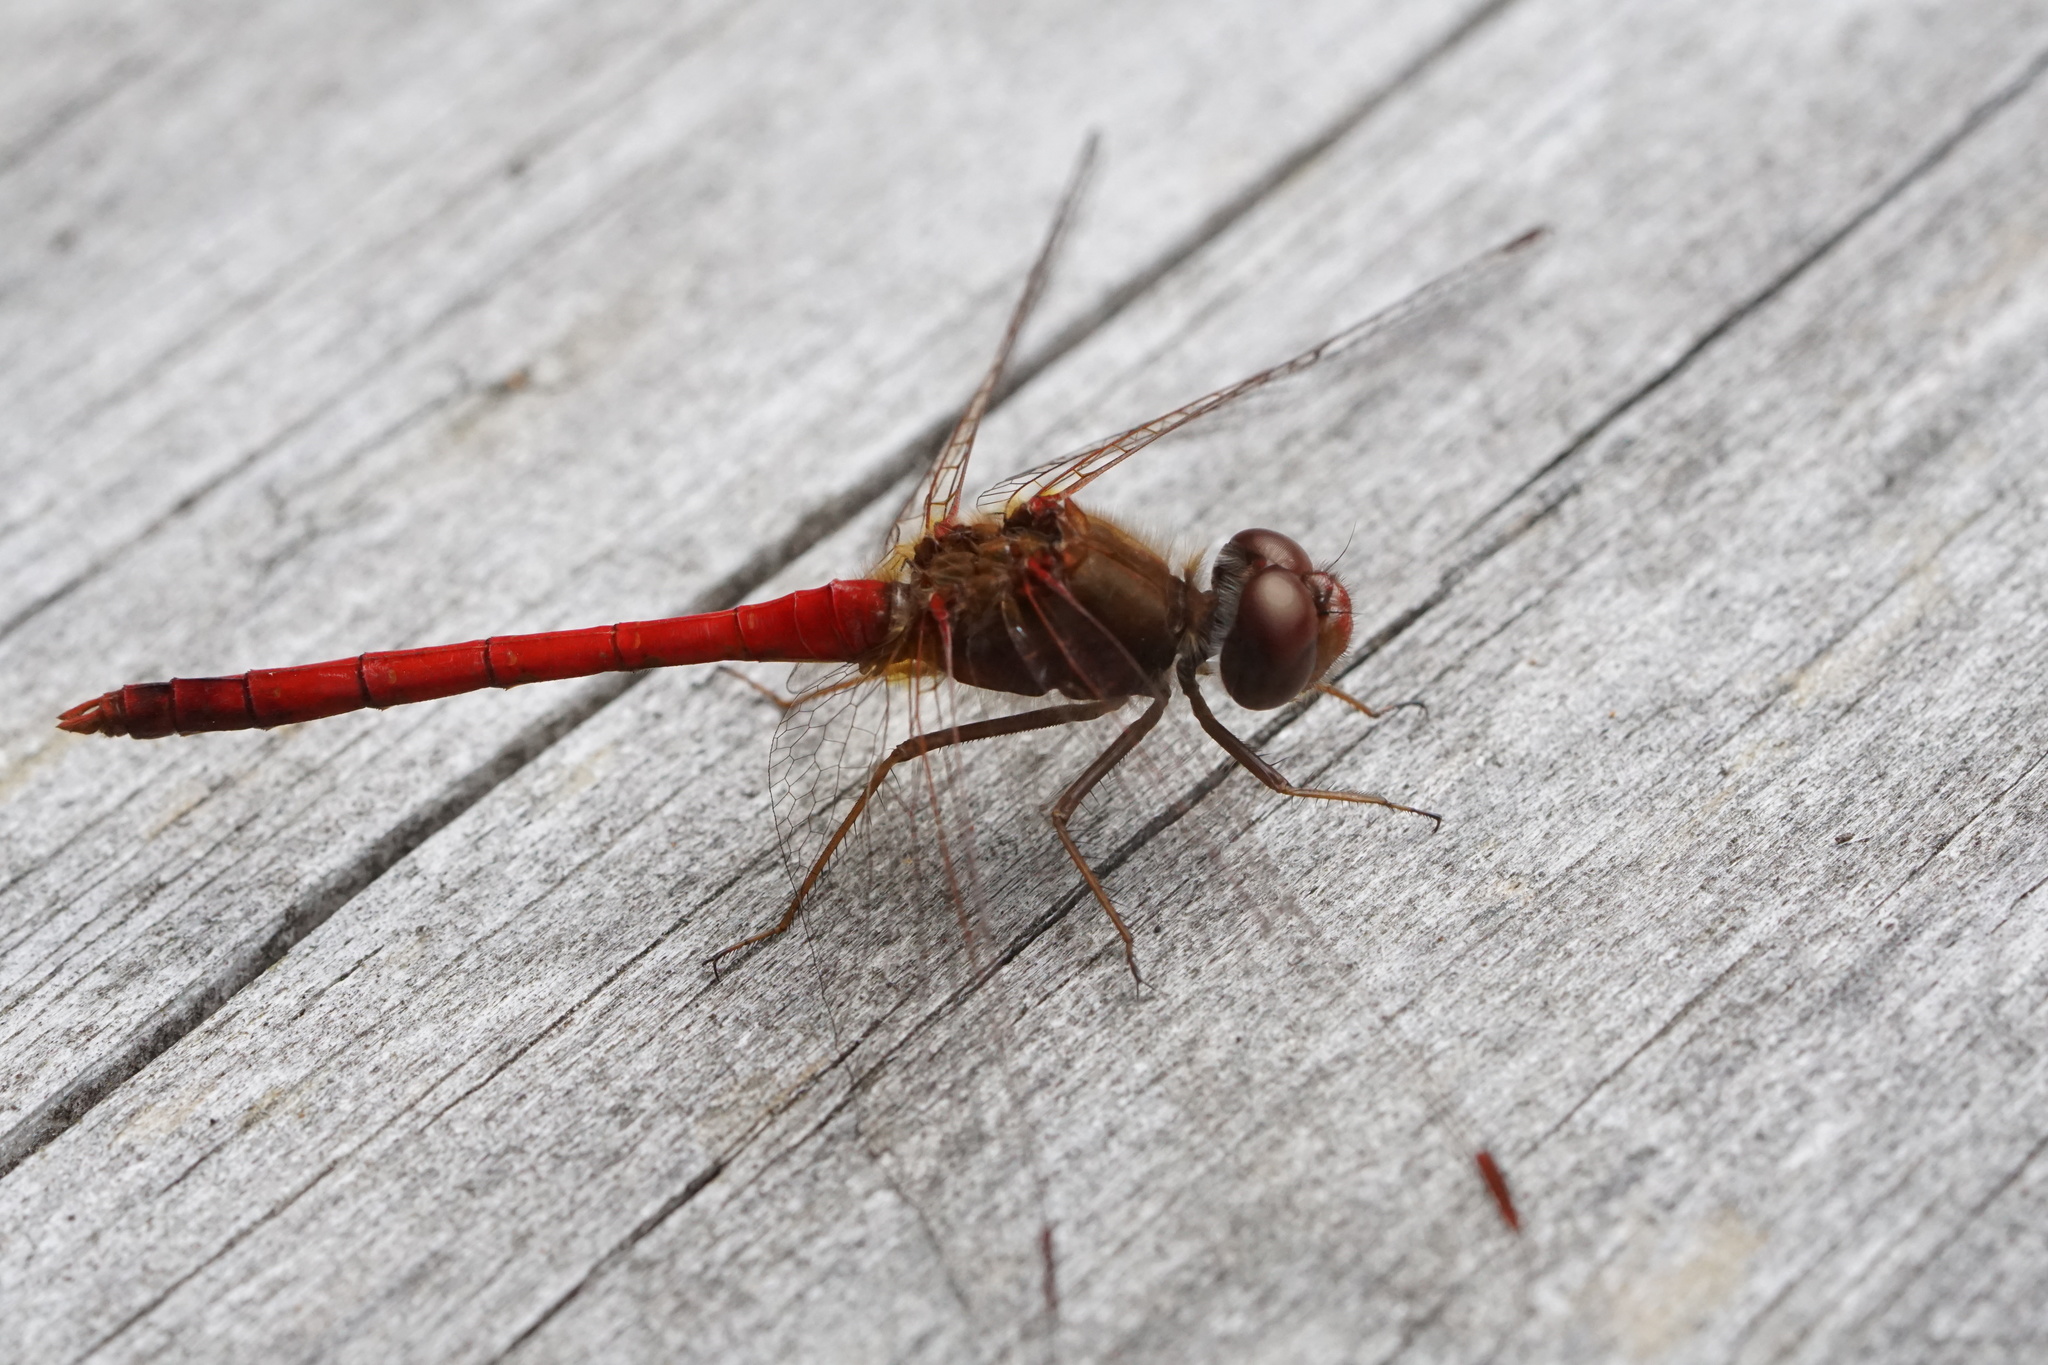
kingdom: Animalia
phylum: Arthropoda
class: Insecta
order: Odonata
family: Libellulidae
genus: Sympetrum
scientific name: Sympetrum vicinum
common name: Autumn meadowhawk
